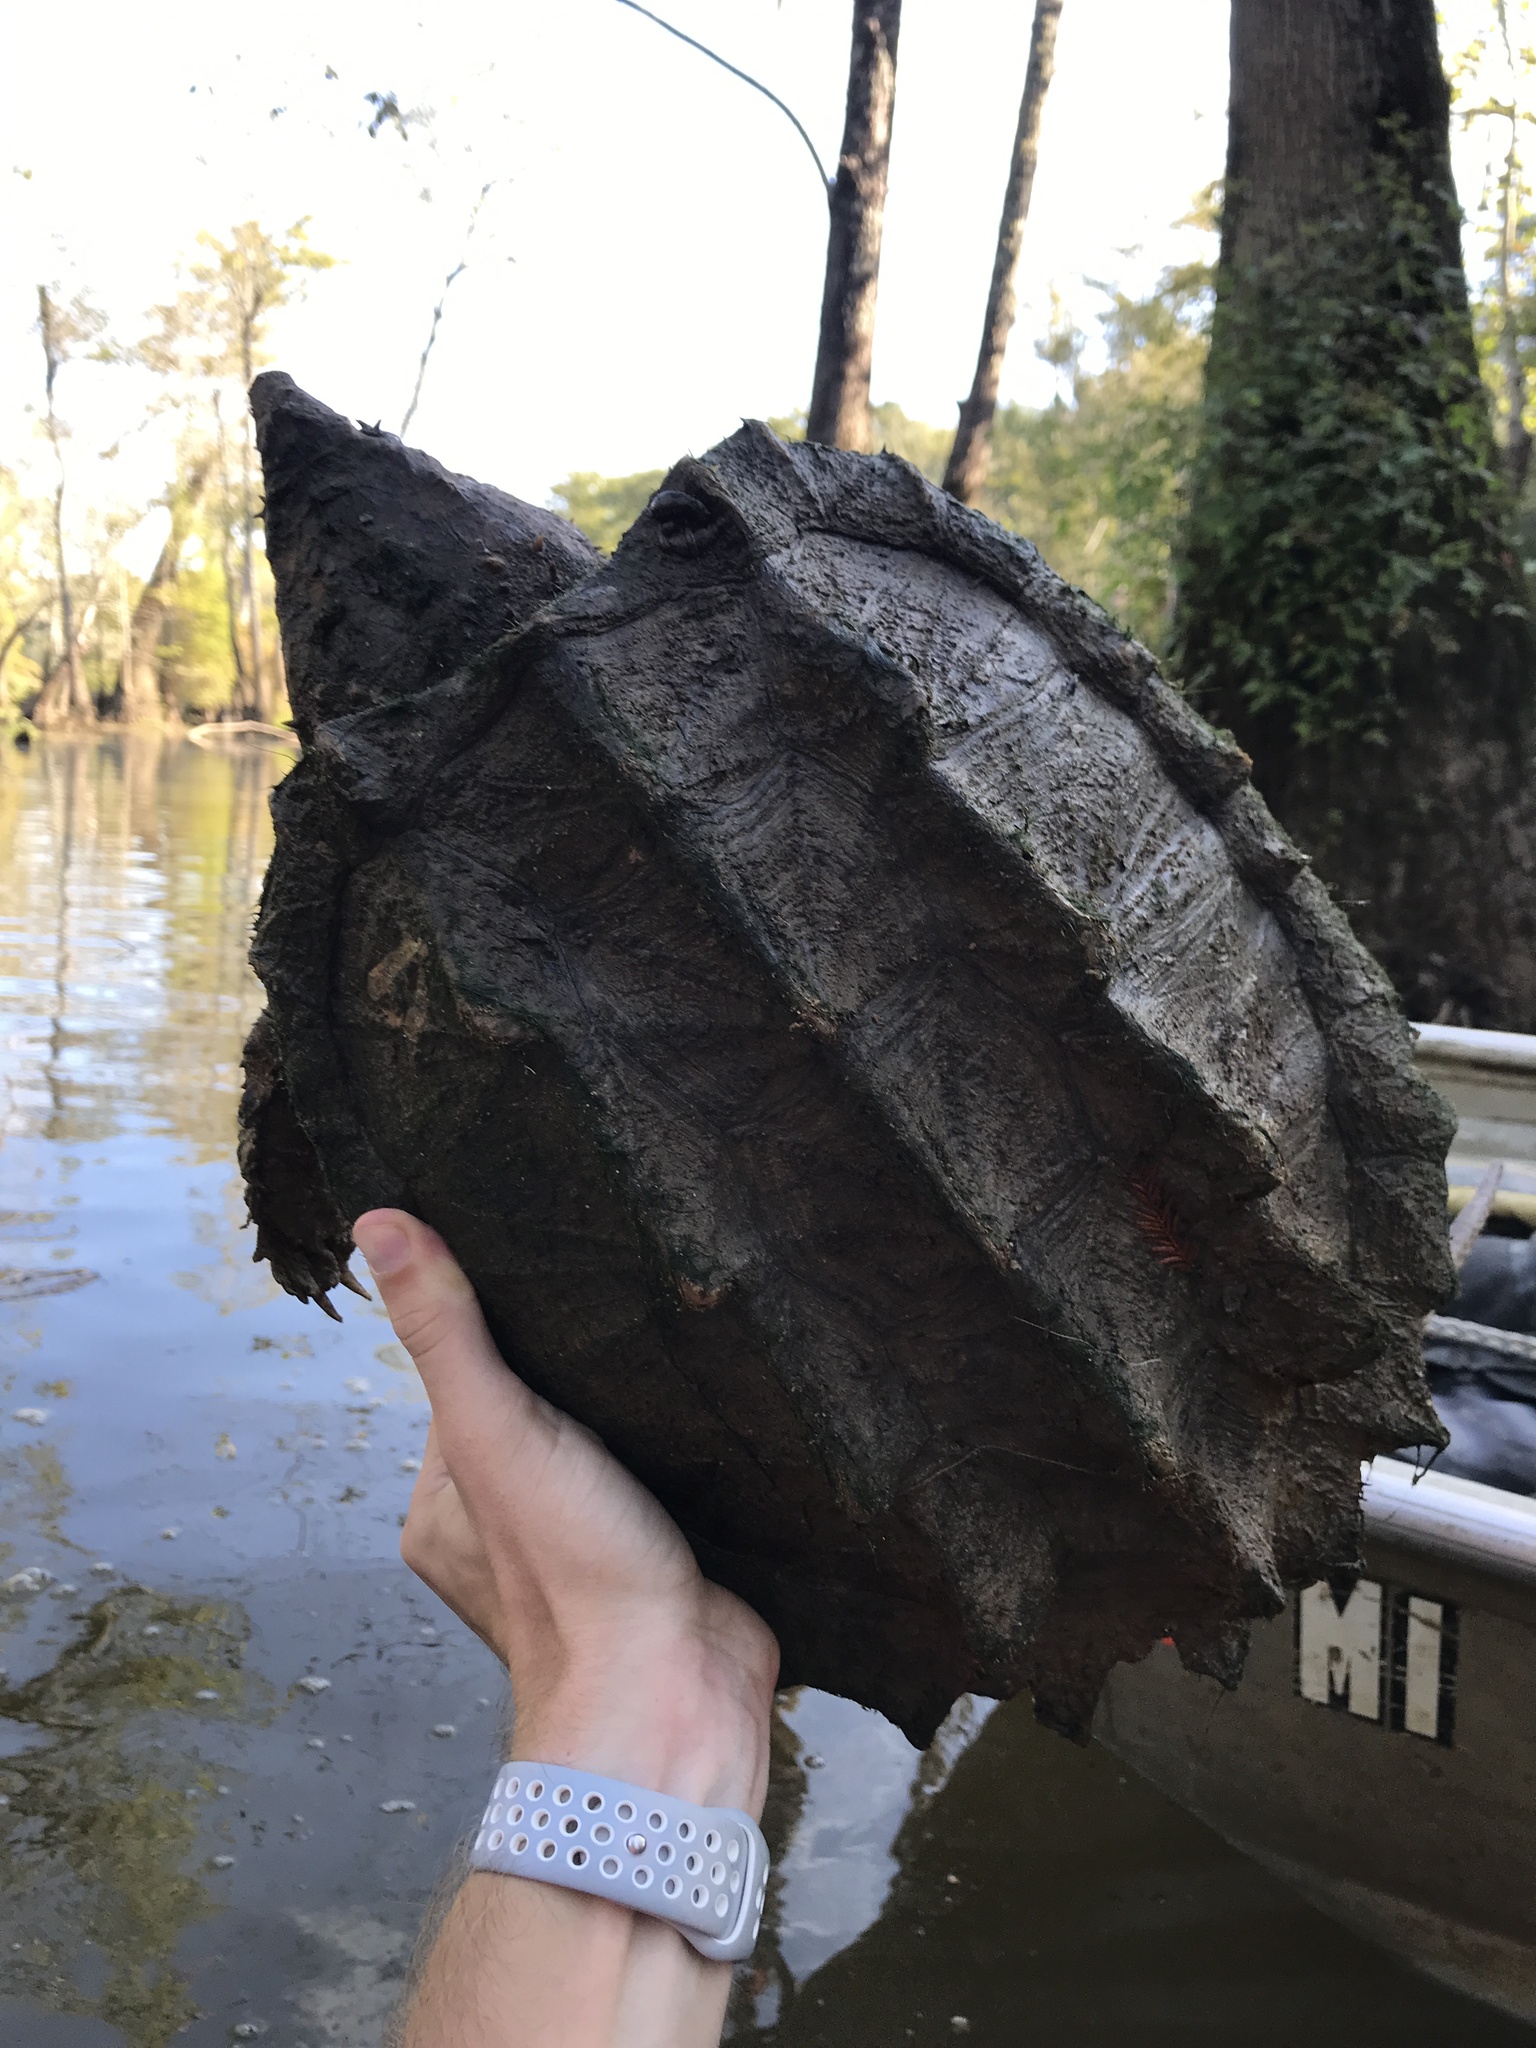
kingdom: Animalia
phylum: Chordata
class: Testudines
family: Chelydridae
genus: Macrochelys
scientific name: Macrochelys temminckii
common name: Alligator snapping turtle
